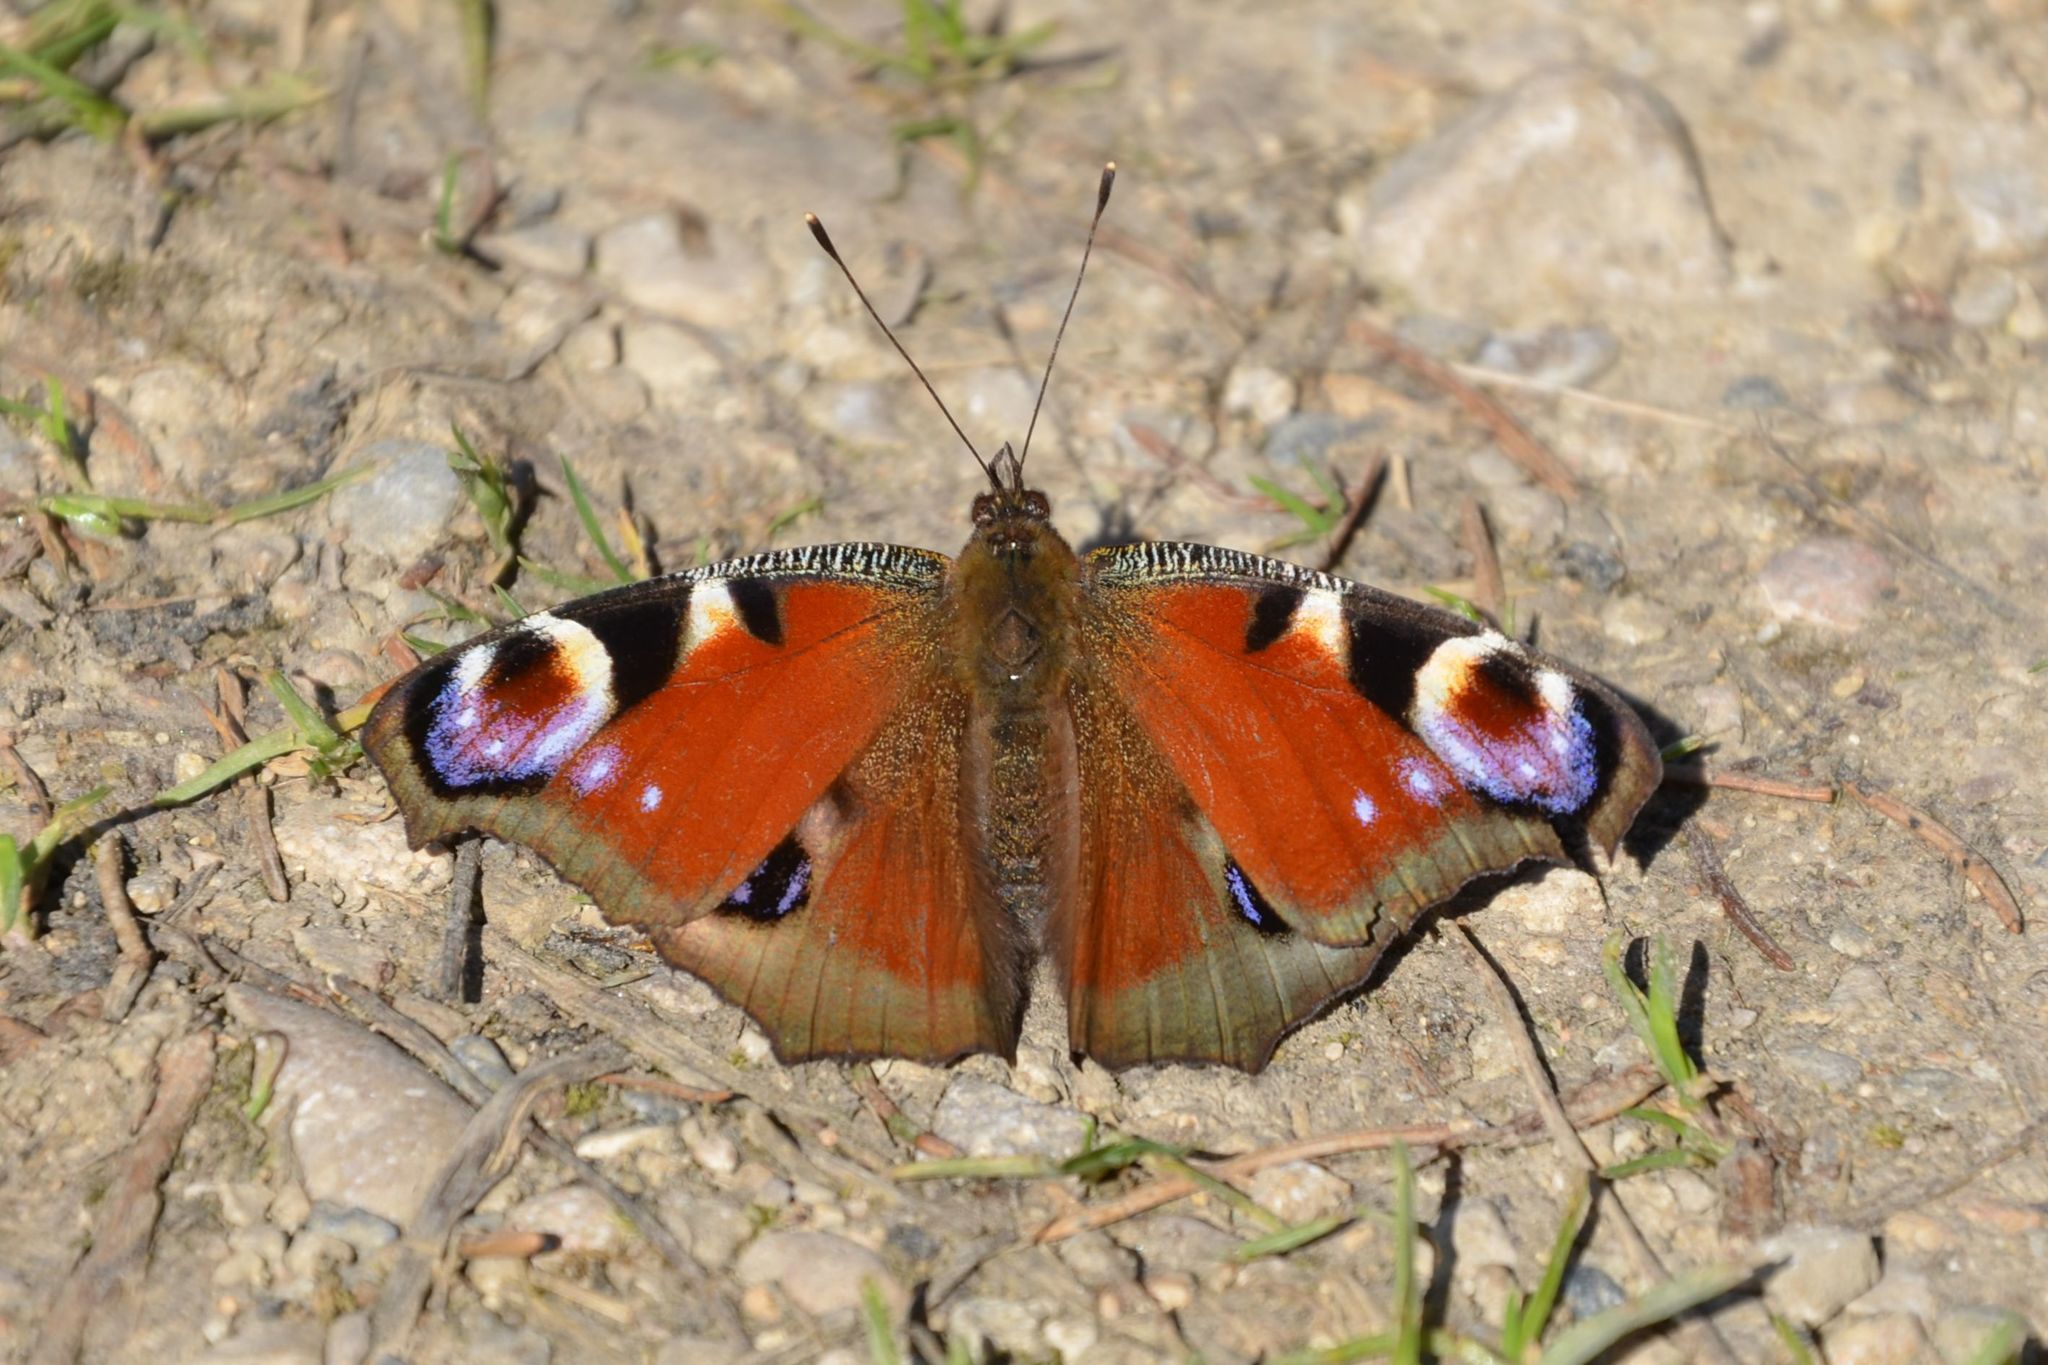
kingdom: Animalia
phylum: Arthropoda
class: Insecta
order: Lepidoptera
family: Nymphalidae
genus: Aglais
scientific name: Aglais io
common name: Peacock
